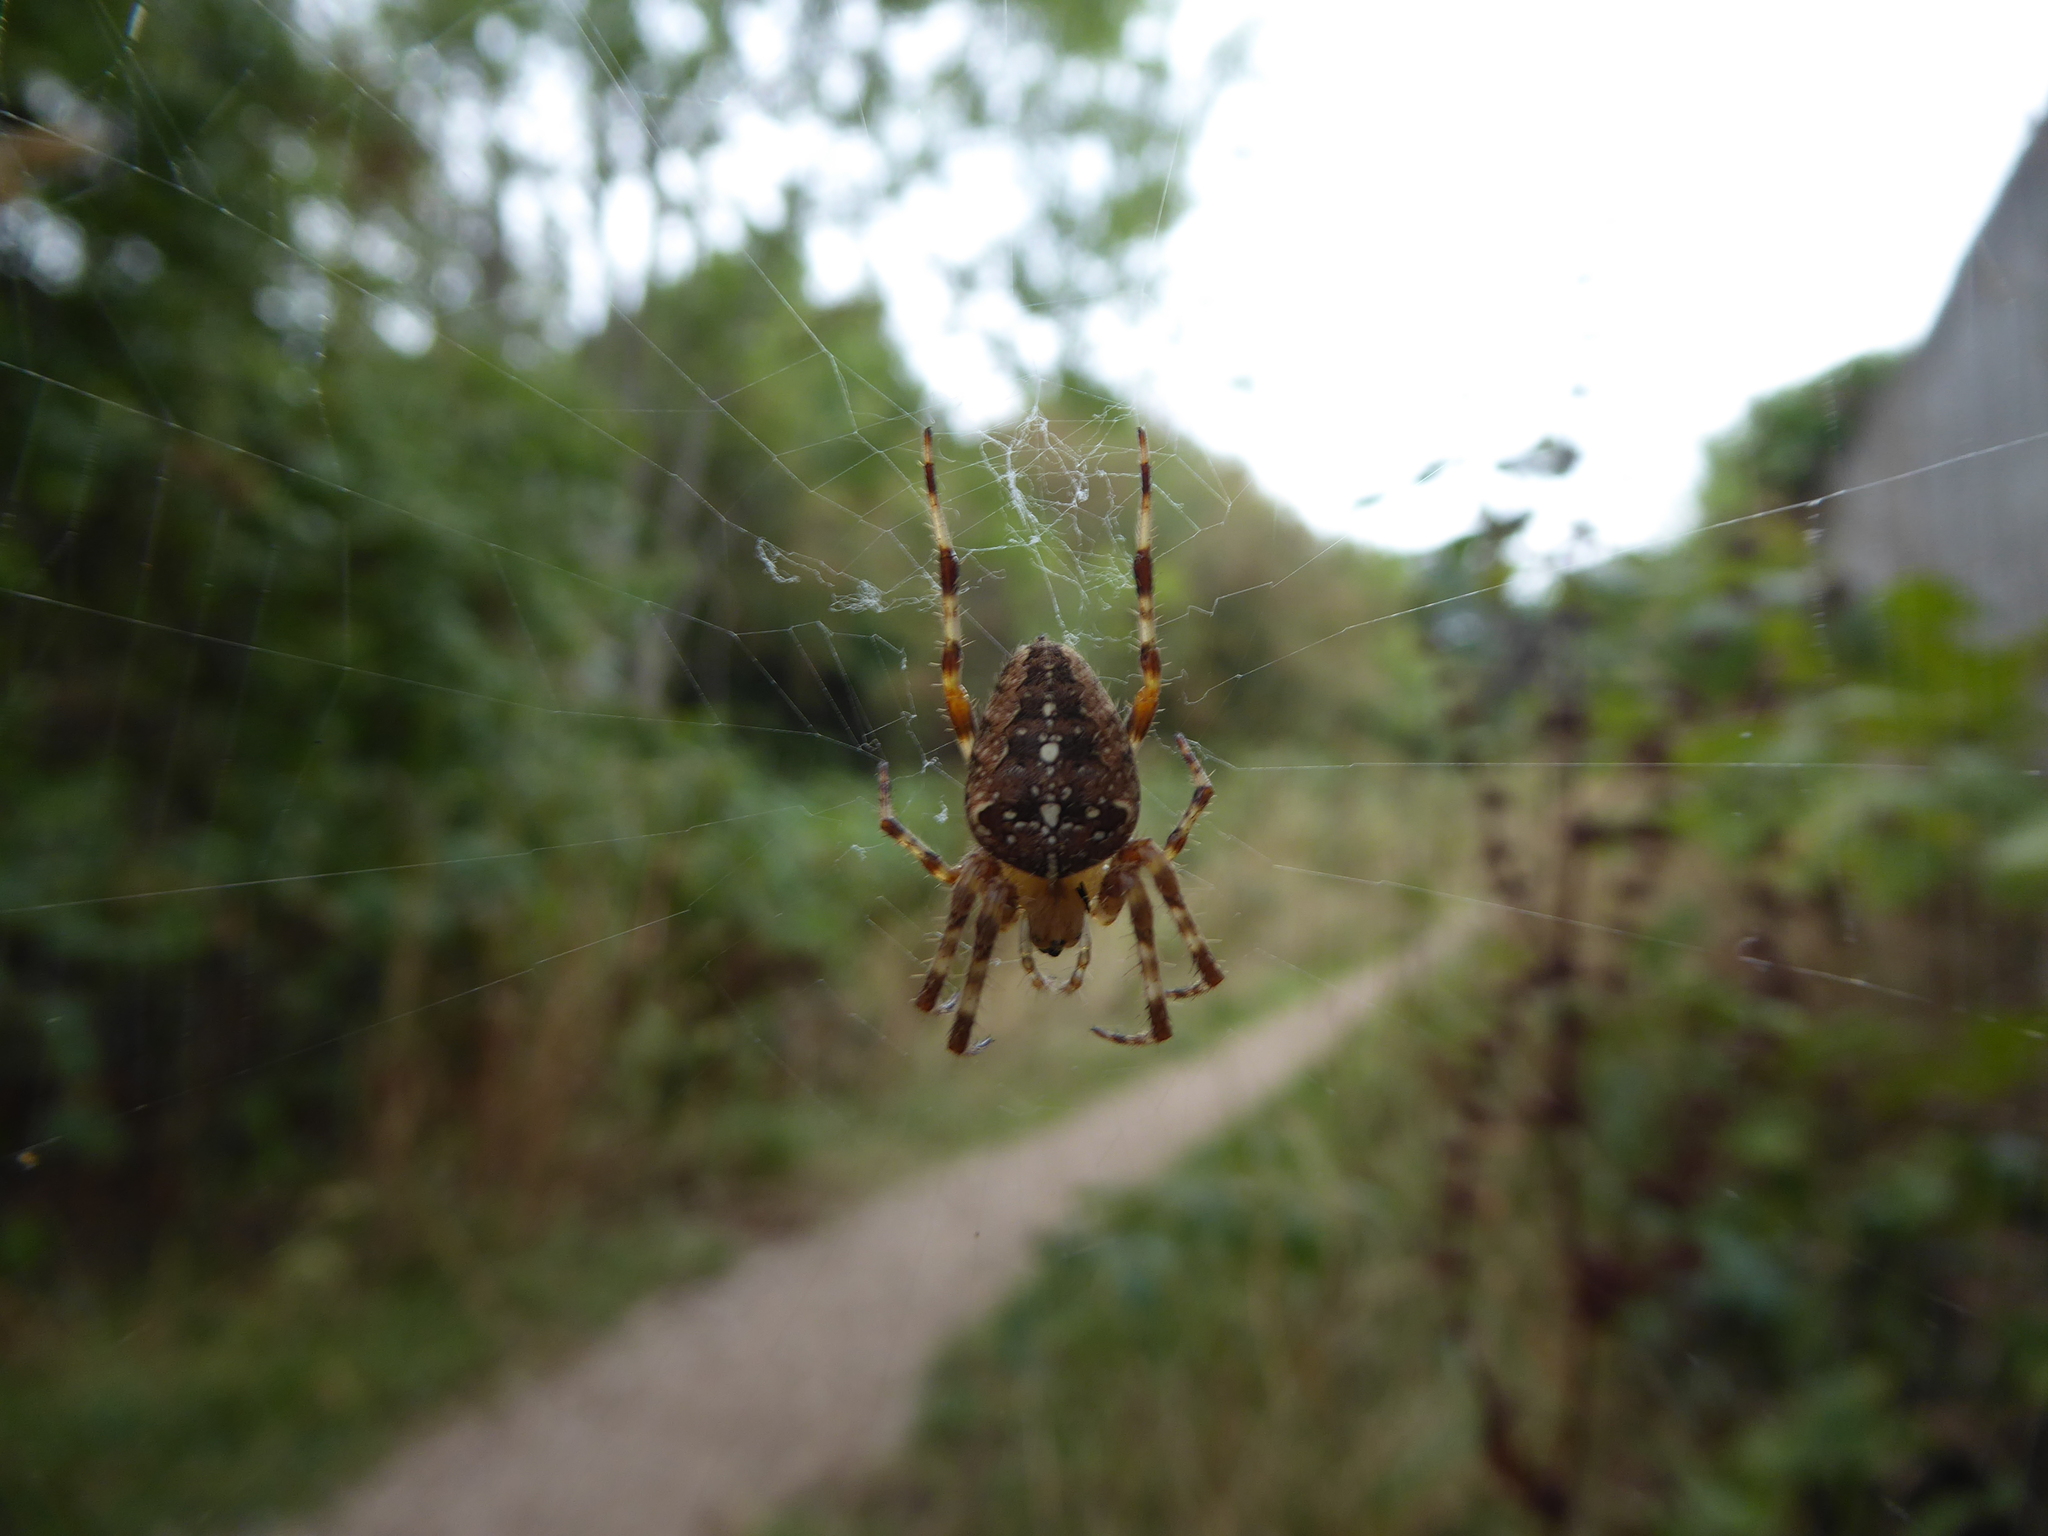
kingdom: Animalia
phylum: Arthropoda
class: Arachnida
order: Araneae
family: Araneidae
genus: Araneus
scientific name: Araneus diadematus
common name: Cross orbweaver
